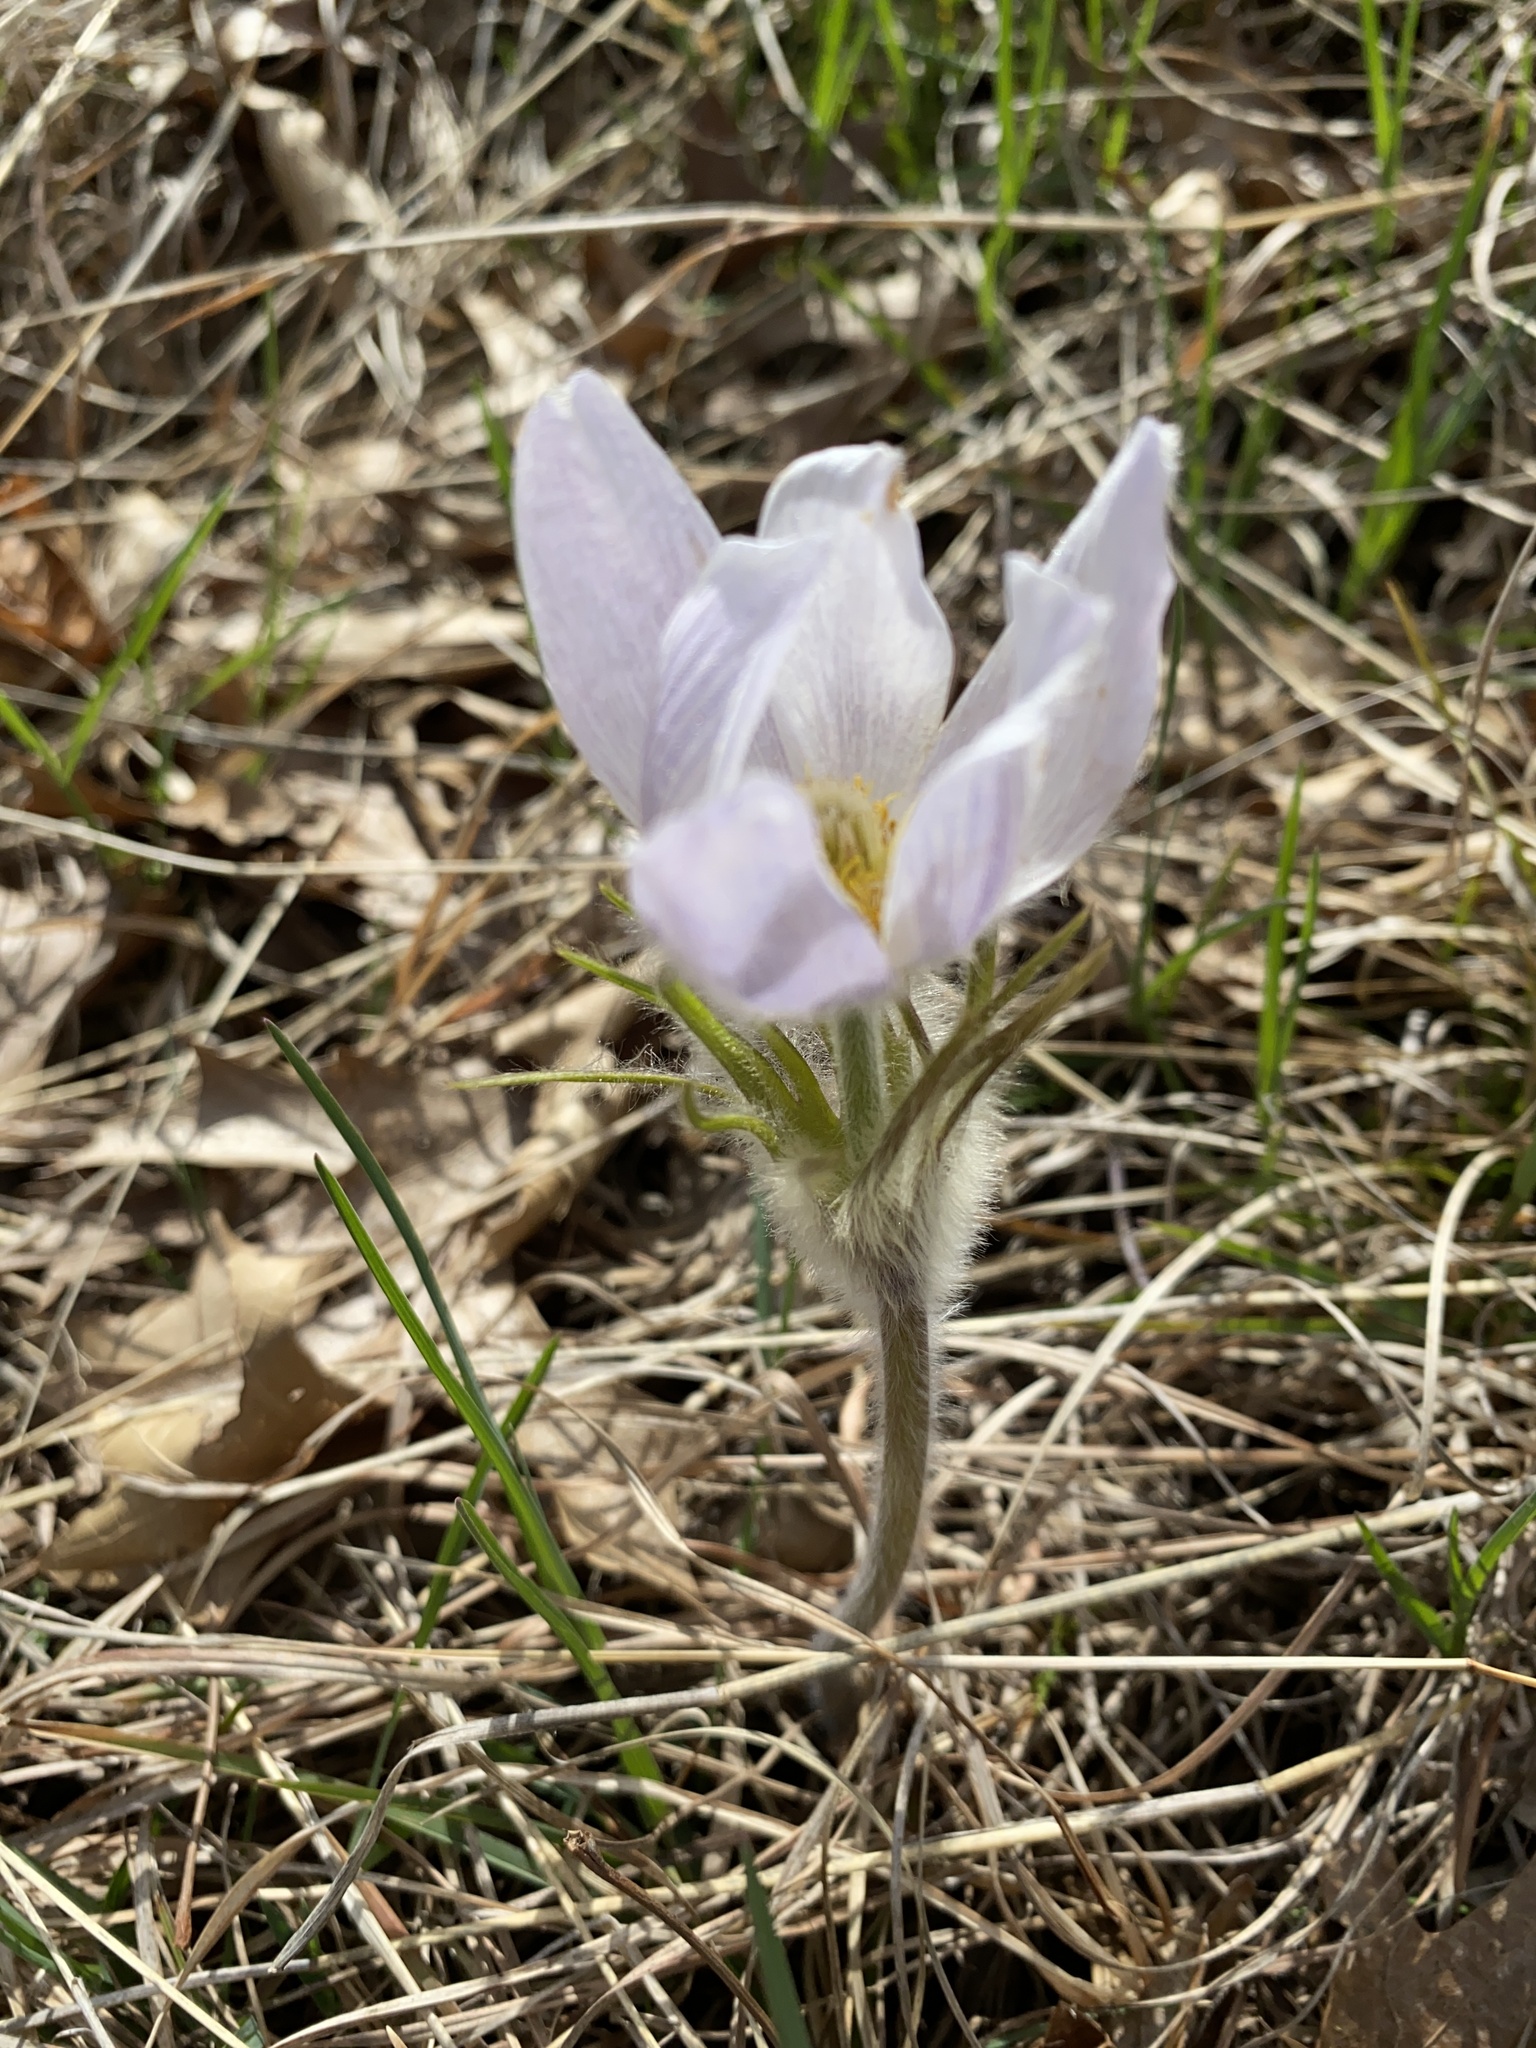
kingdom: Plantae
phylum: Tracheophyta
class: Magnoliopsida
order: Ranunculales
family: Ranunculaceae
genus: Pulsatilla
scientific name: Pulsatilla nuttalliana
